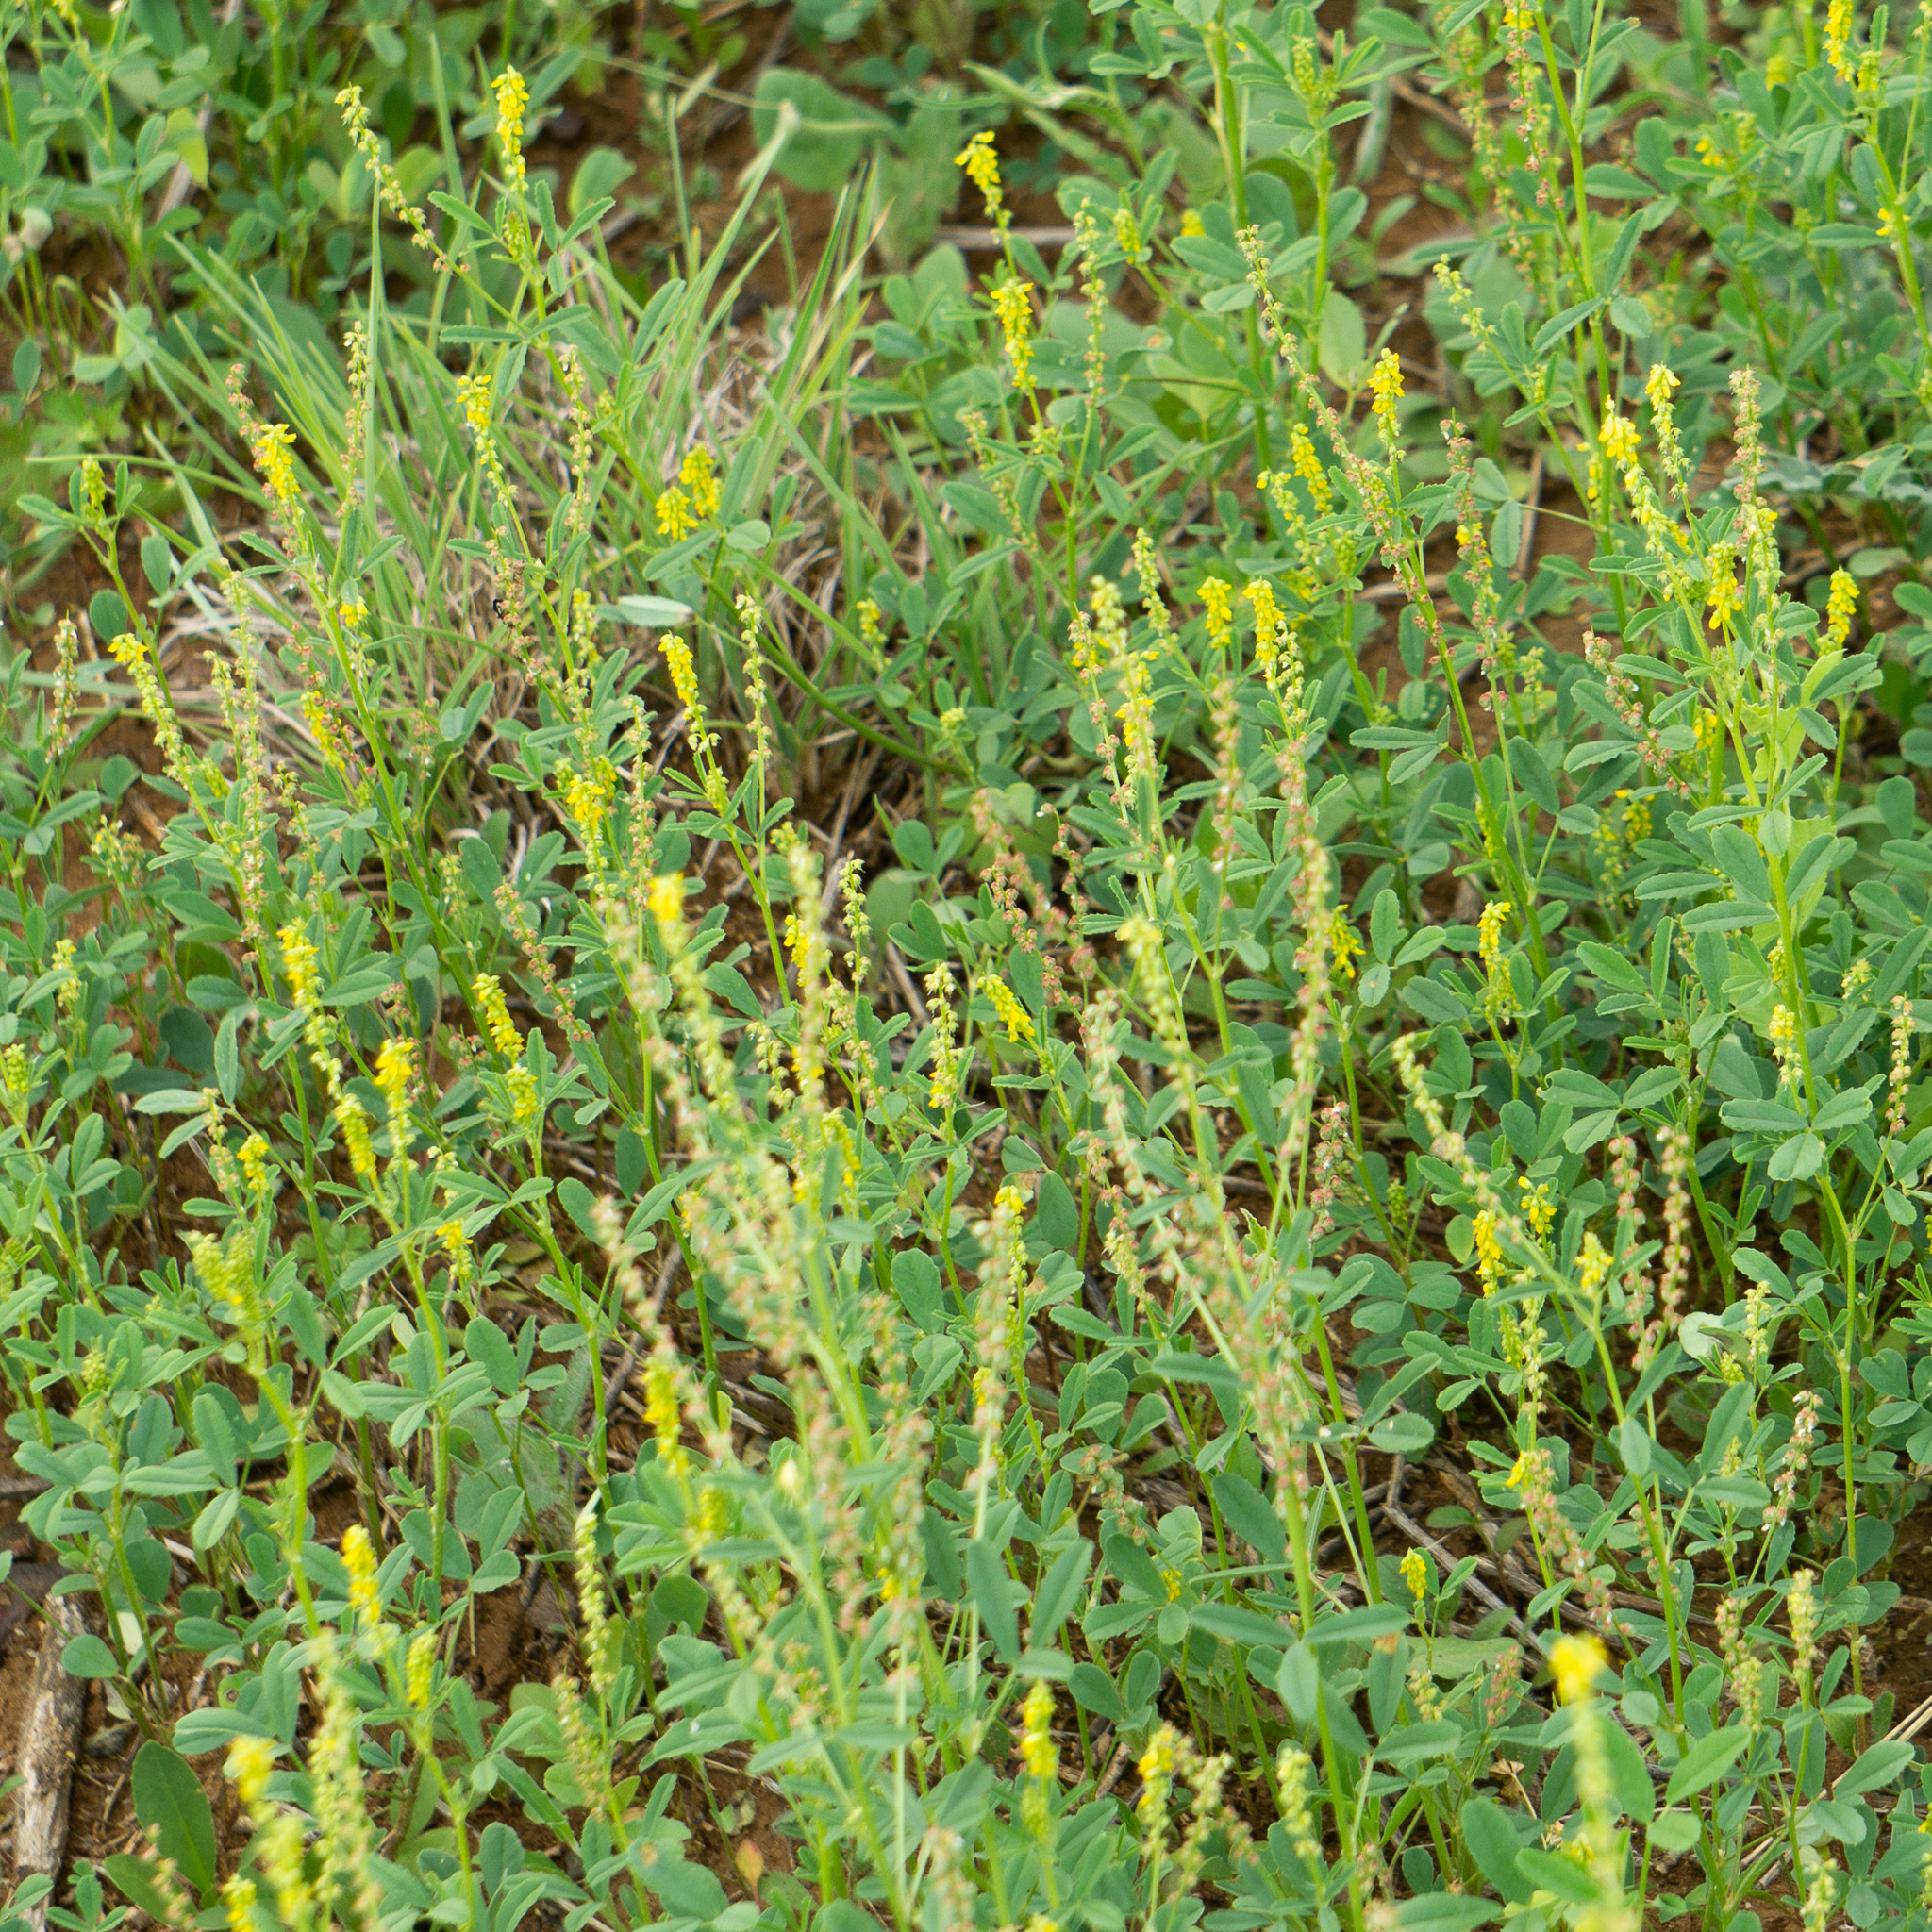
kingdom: Plantae
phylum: Tracheophyta
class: Magnoliopsida
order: Fabales
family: Fabaceae
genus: Melilotus
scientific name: Melilotus indicus
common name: Small melilot
